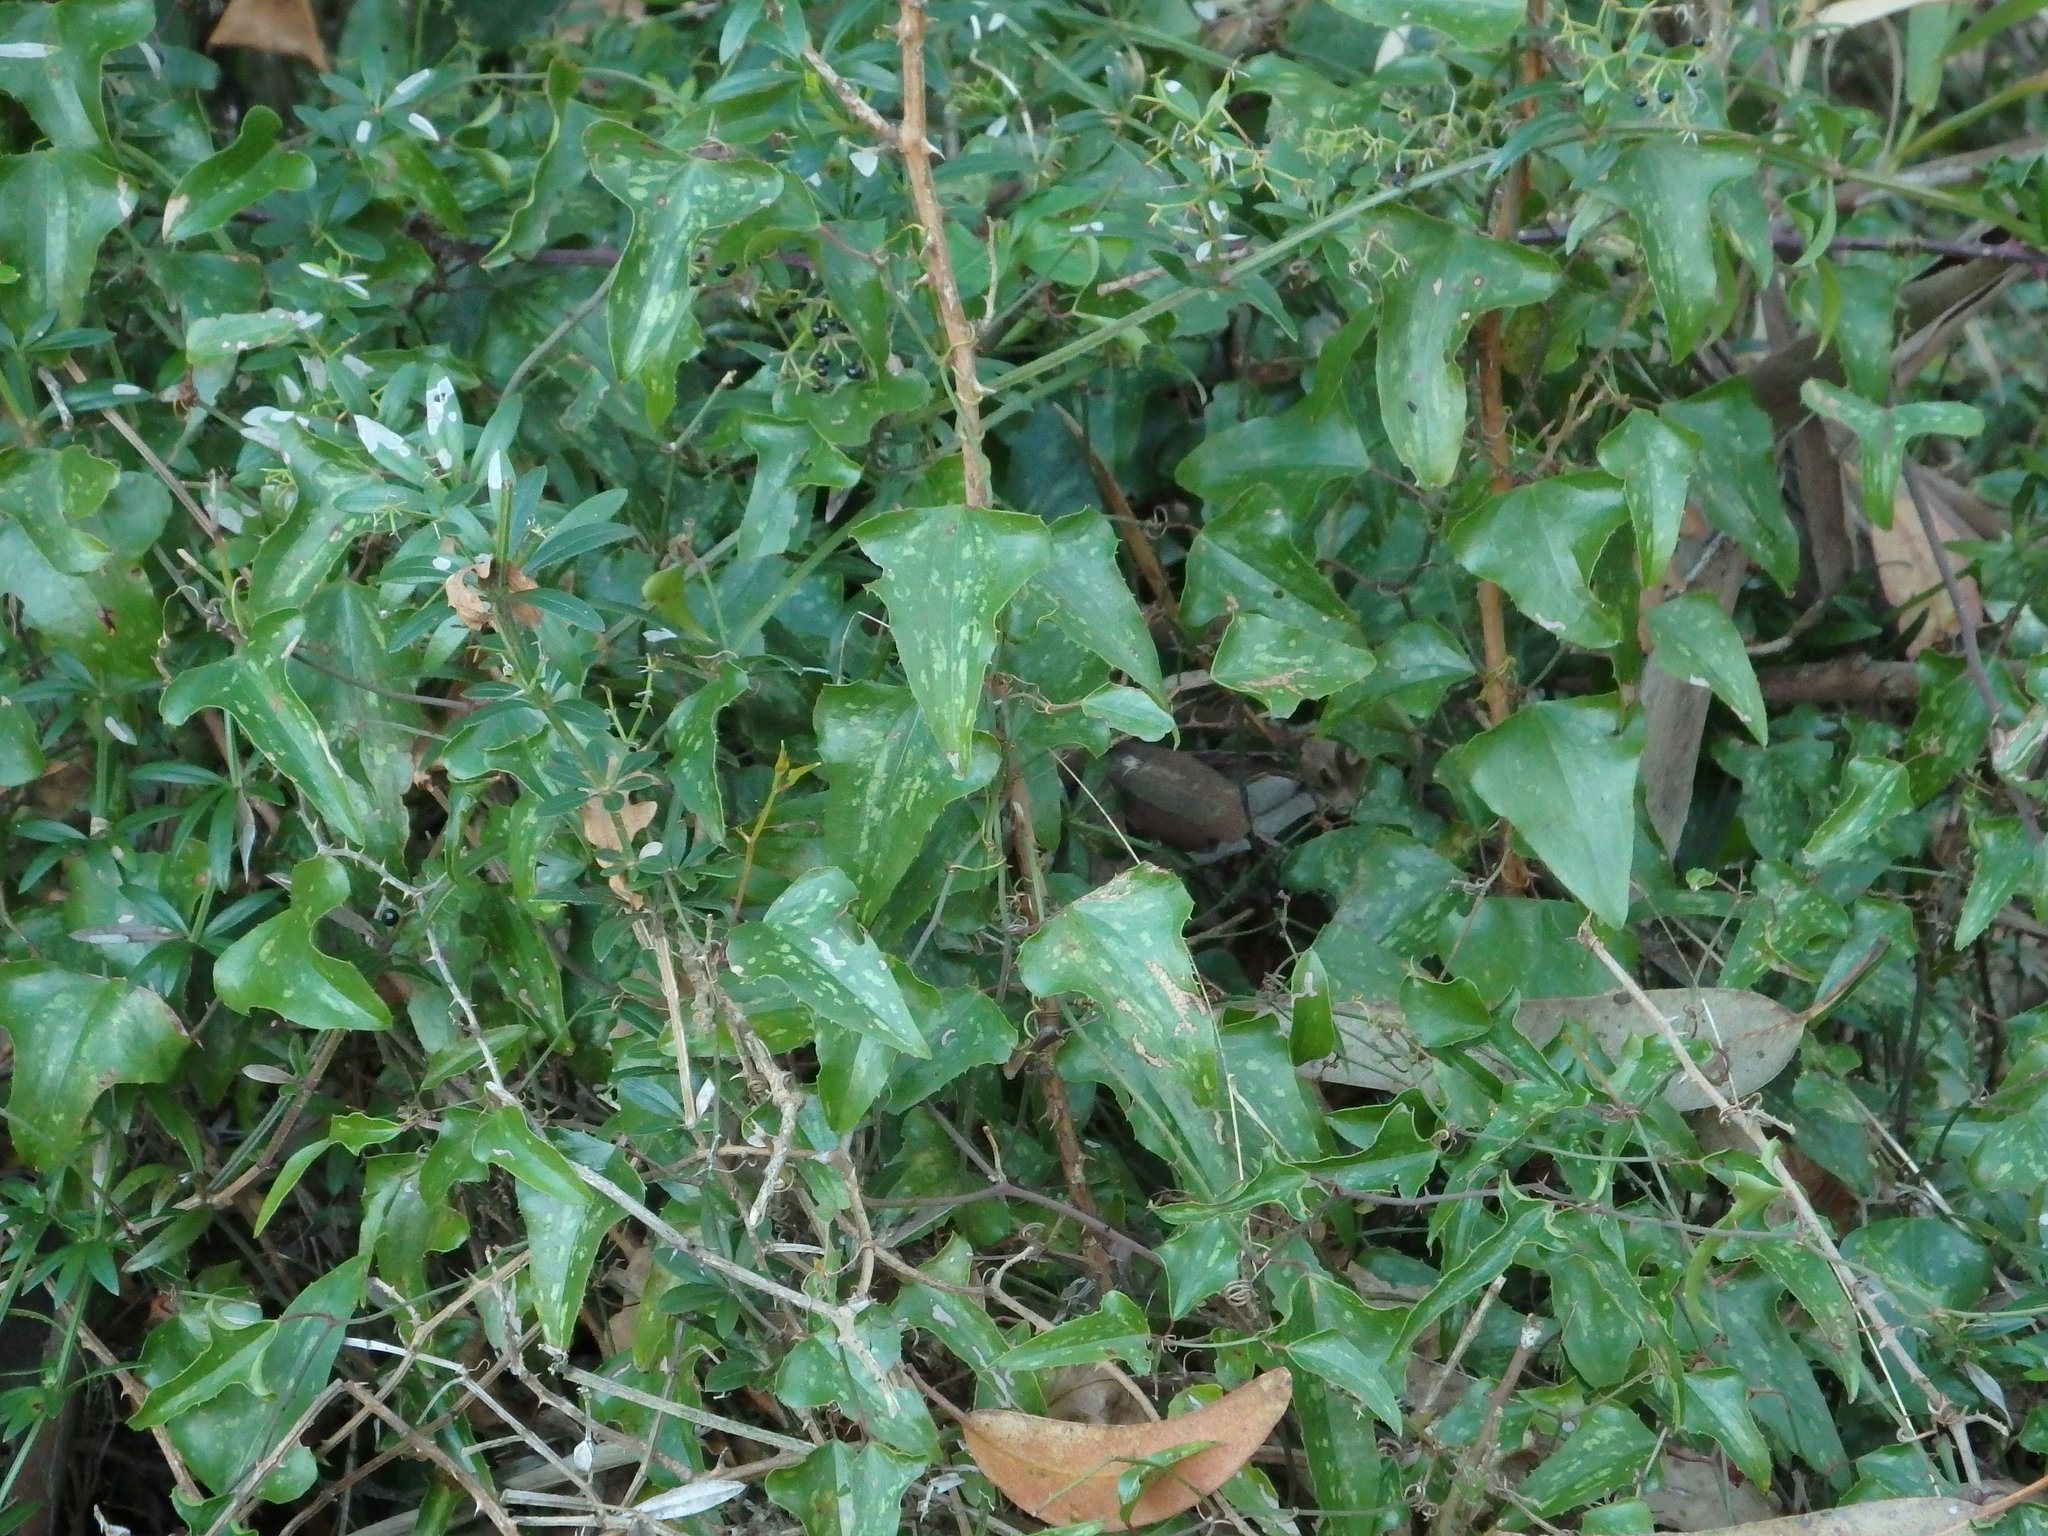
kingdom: Plantae
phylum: Tracheophyta
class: Liliopsida
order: Liliales
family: Smilacaceae
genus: Smilax
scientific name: Smilax aspera
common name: Common smilax
